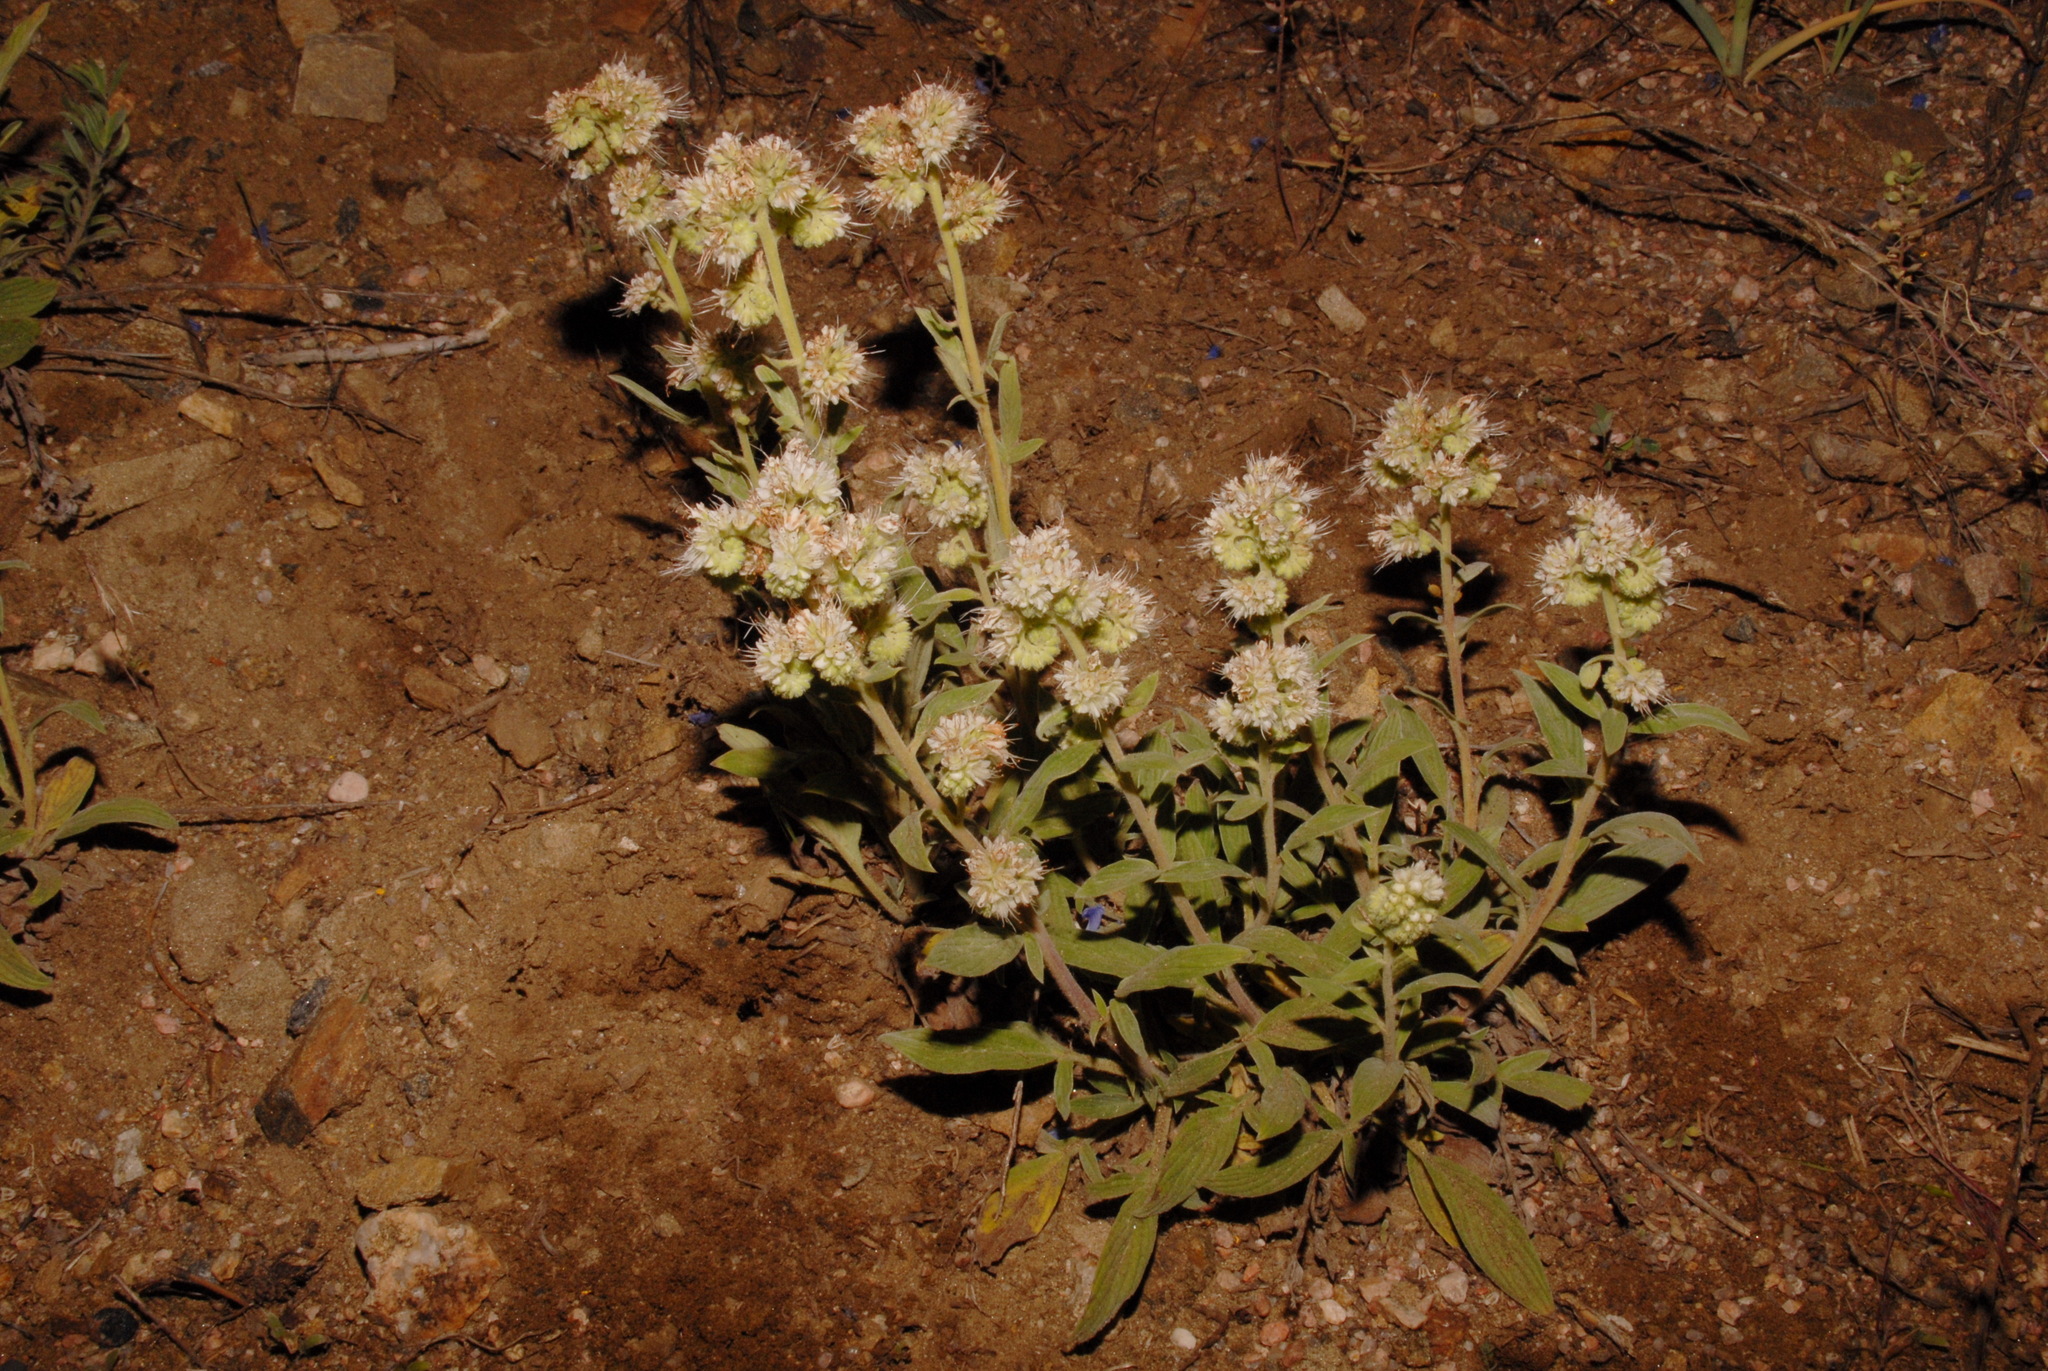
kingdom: Plantae
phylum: Tracheophyta
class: Magnoliopsida
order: Boraginales
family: Hydrophyllaceae
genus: Phacelia
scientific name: Phacelia heterophylla
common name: Variable-leaved phacelia
